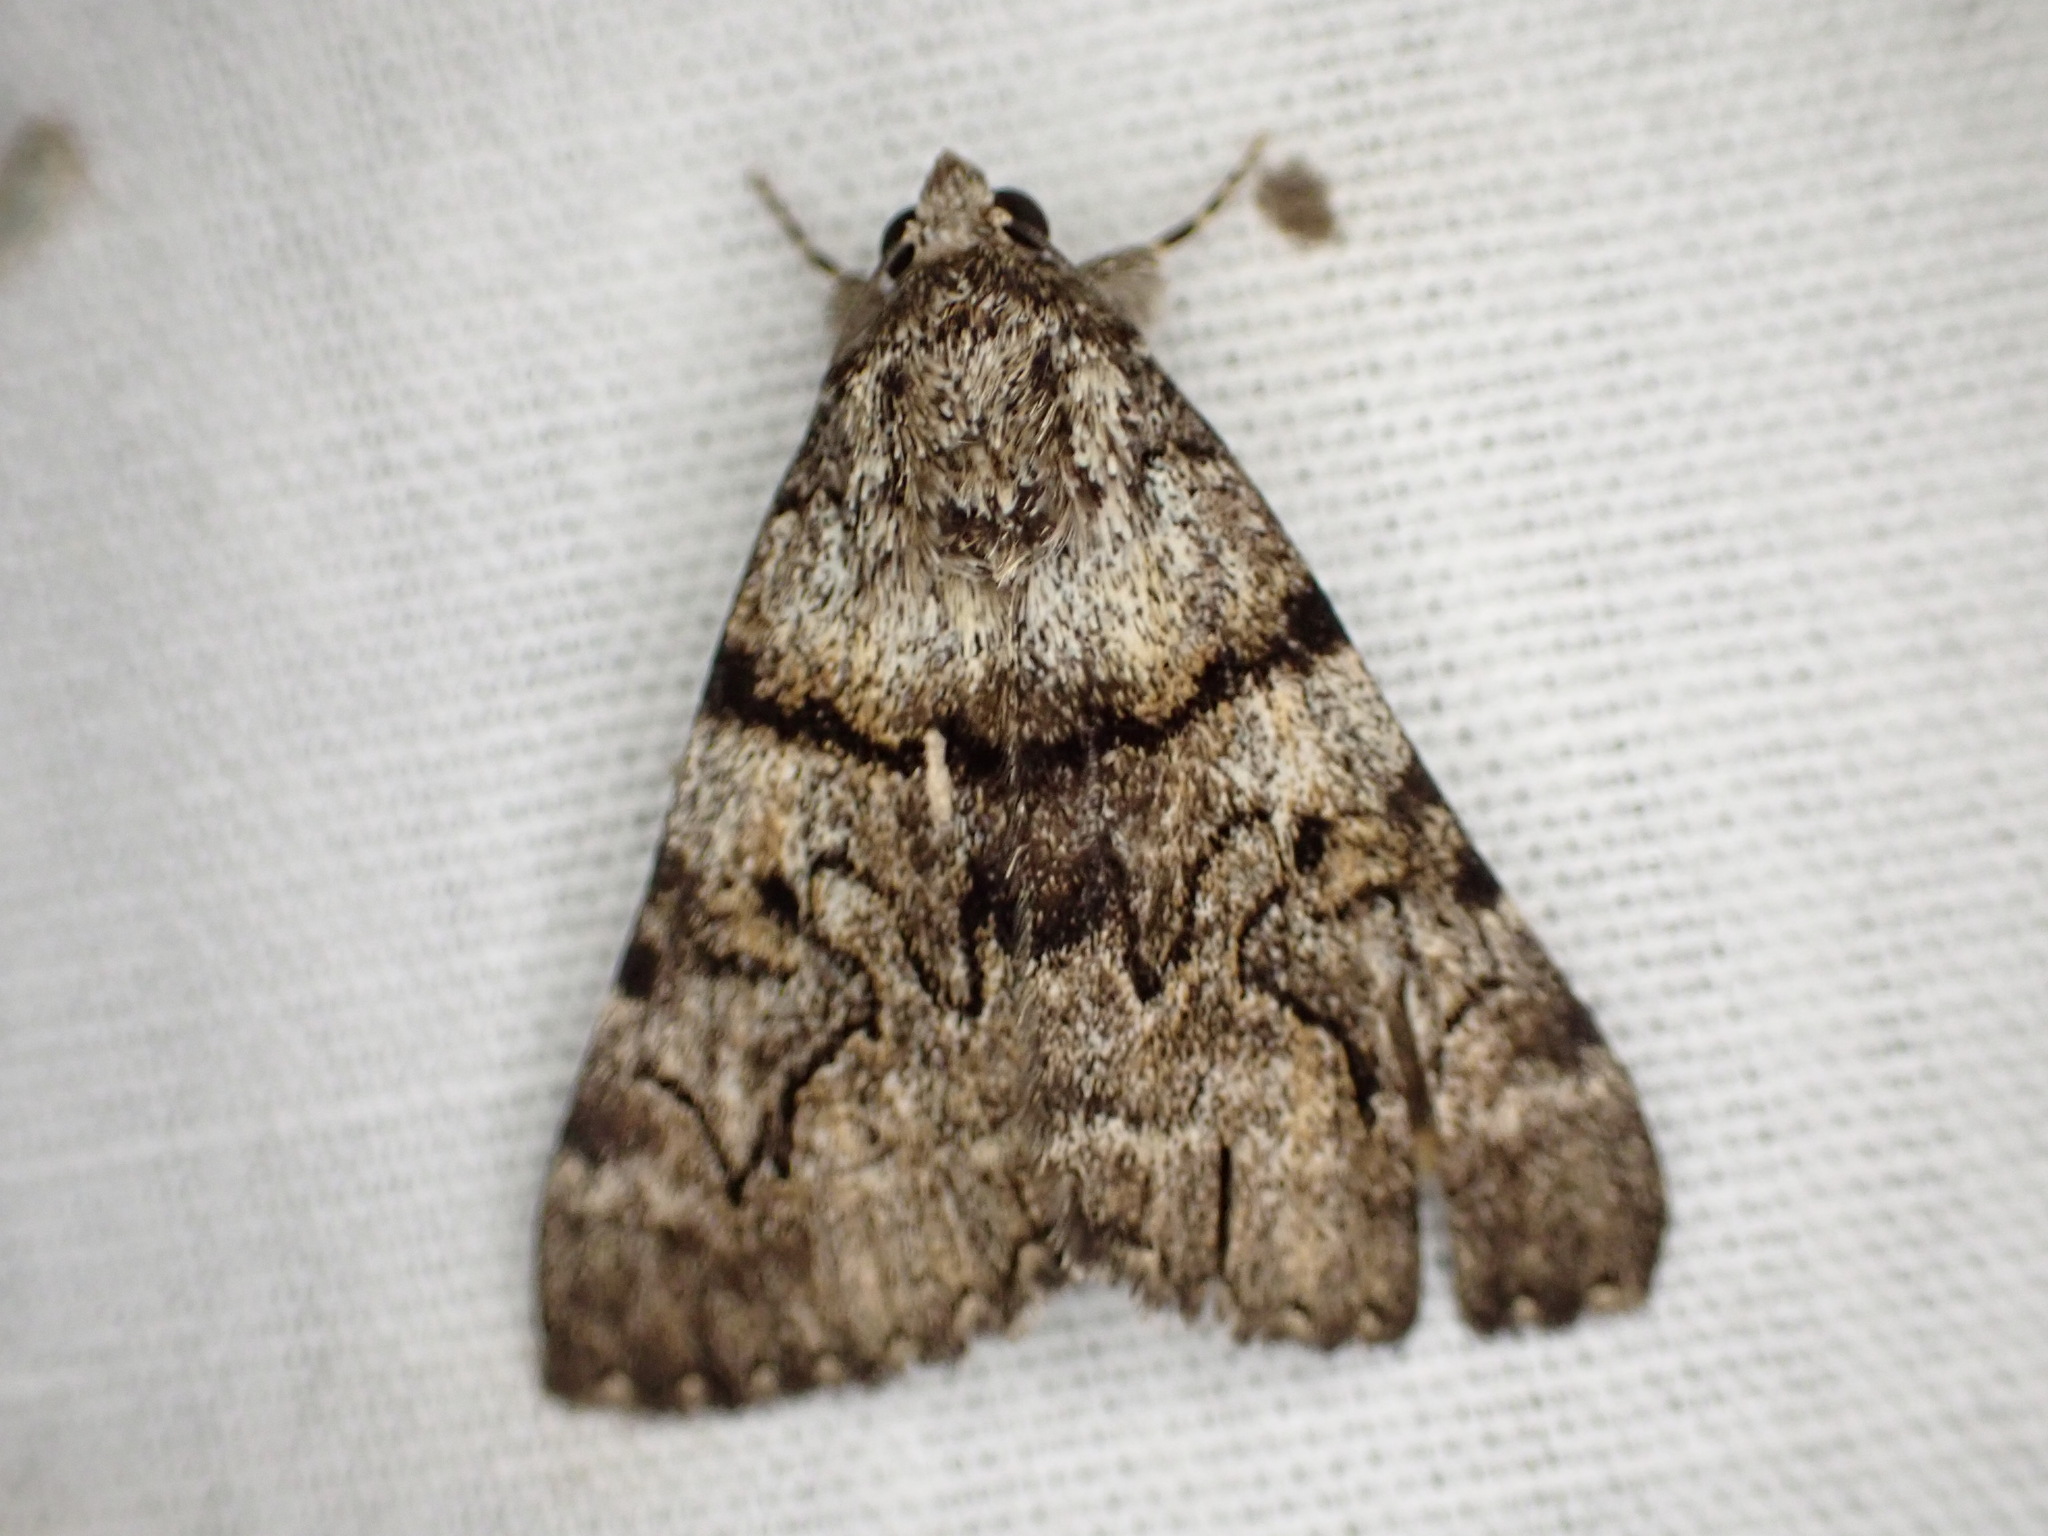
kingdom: Animalia
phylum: Arthropoda
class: Insecta
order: Lepidoptera
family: Erebidae
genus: Catocala
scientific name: Catocala nymphagoga
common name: Oak yellow underwing
